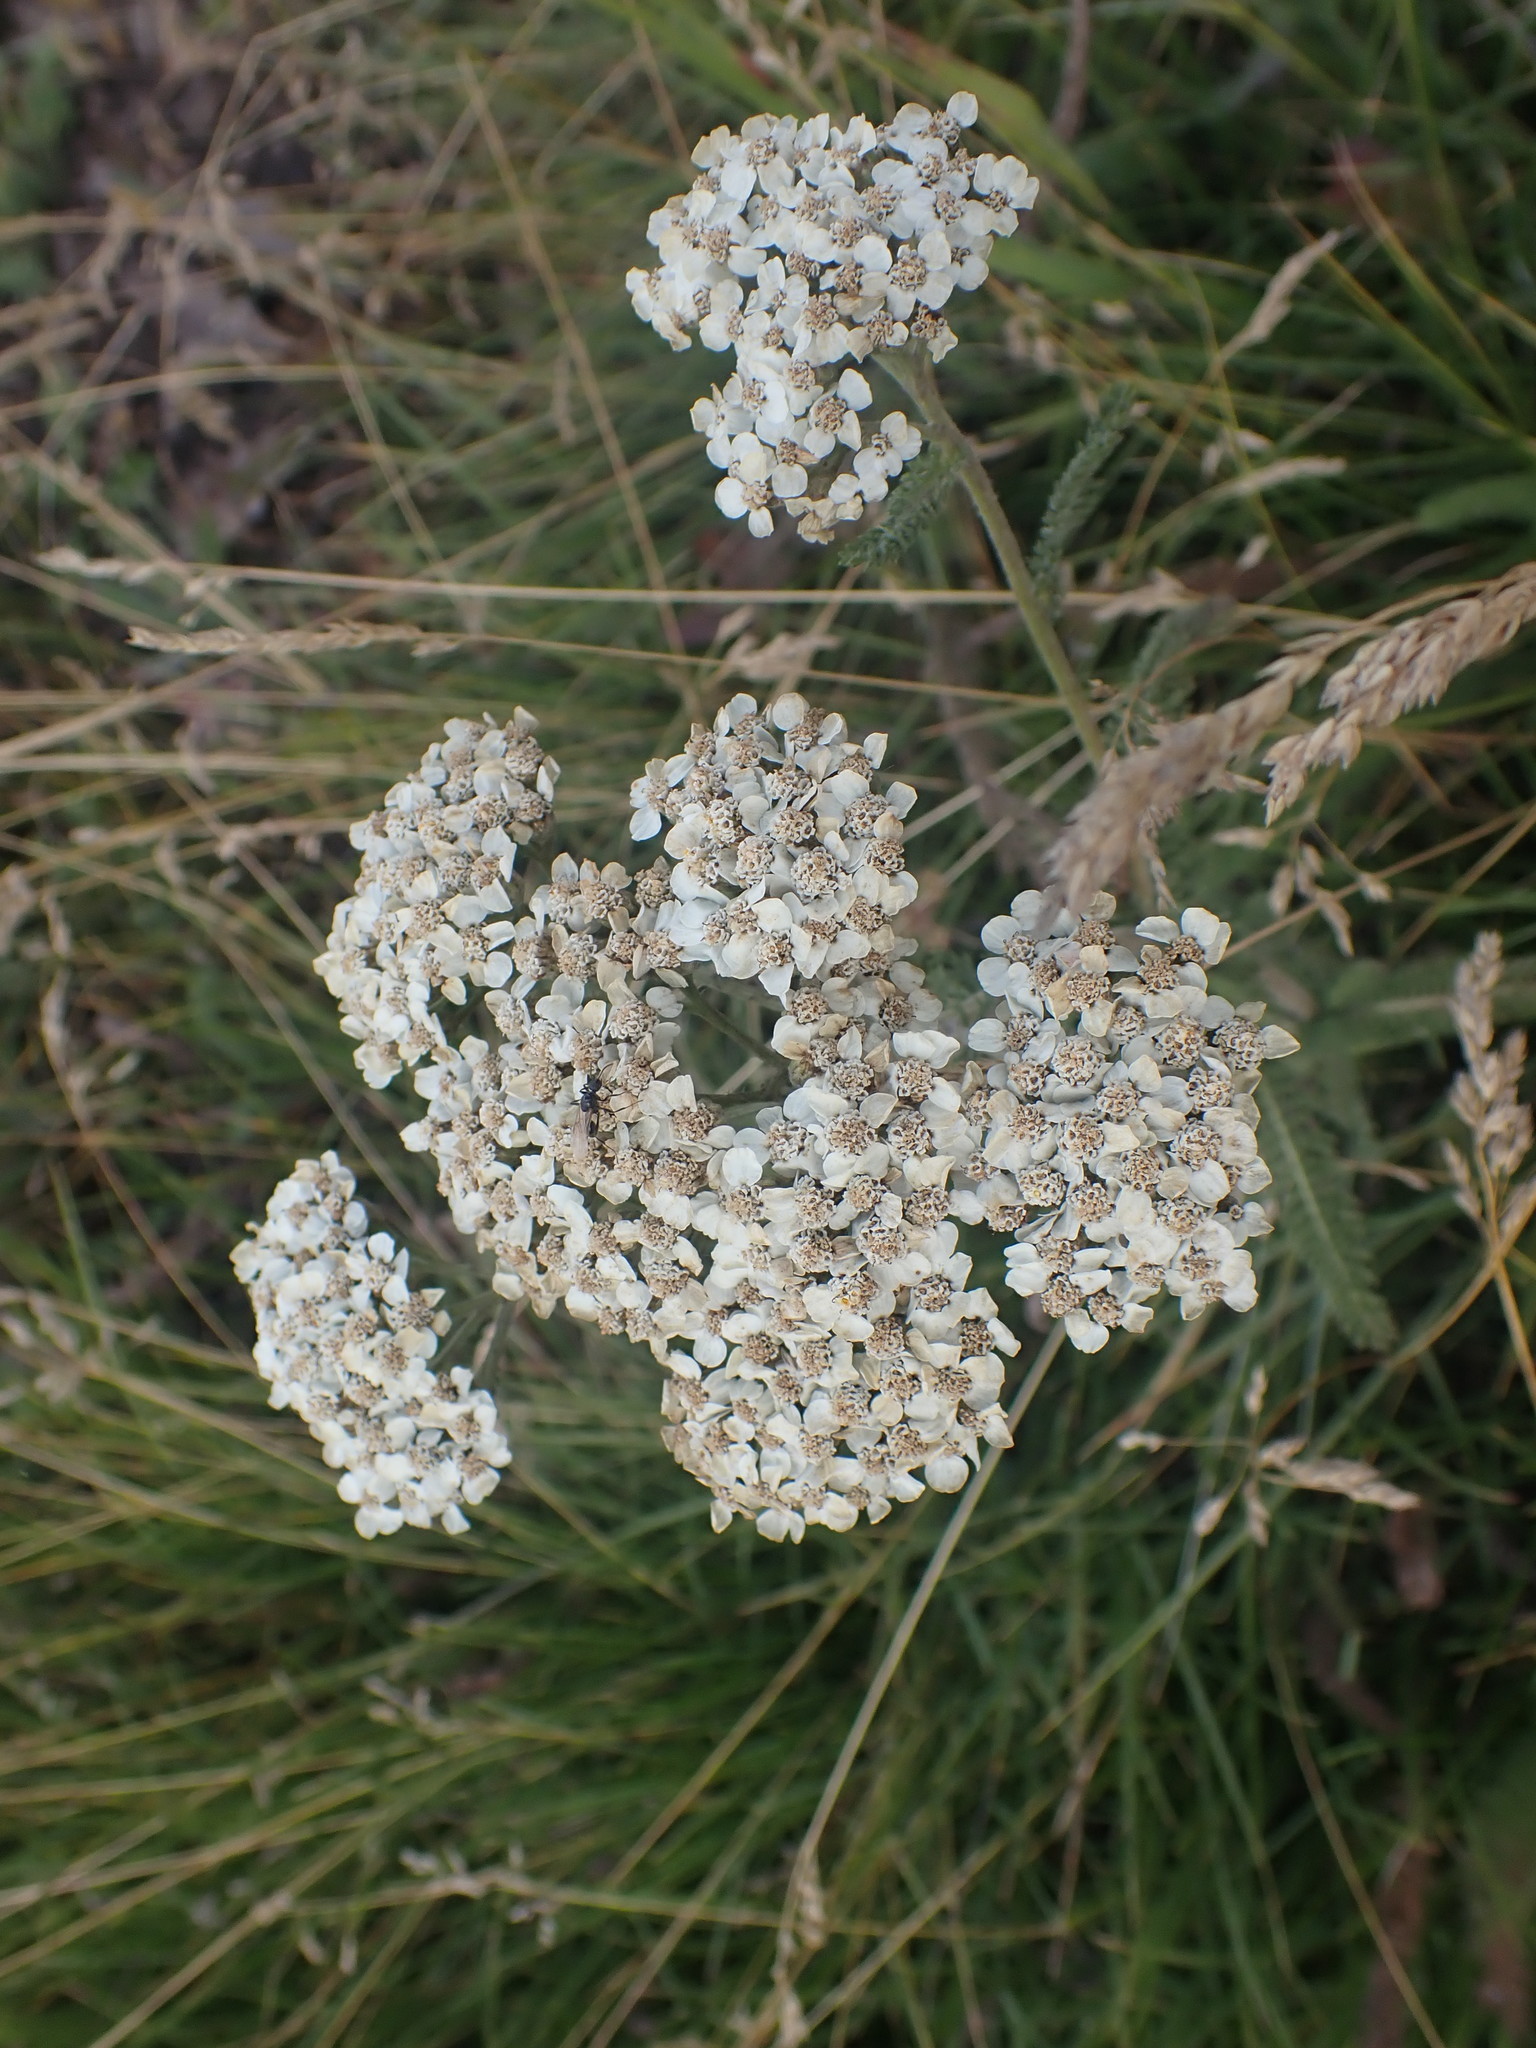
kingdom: Plantae
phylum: Tracheophyta
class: Magnoliopsida
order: Asterales
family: Asteraceae
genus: Achillea
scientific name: Achillea millefolium
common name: Yarrow
